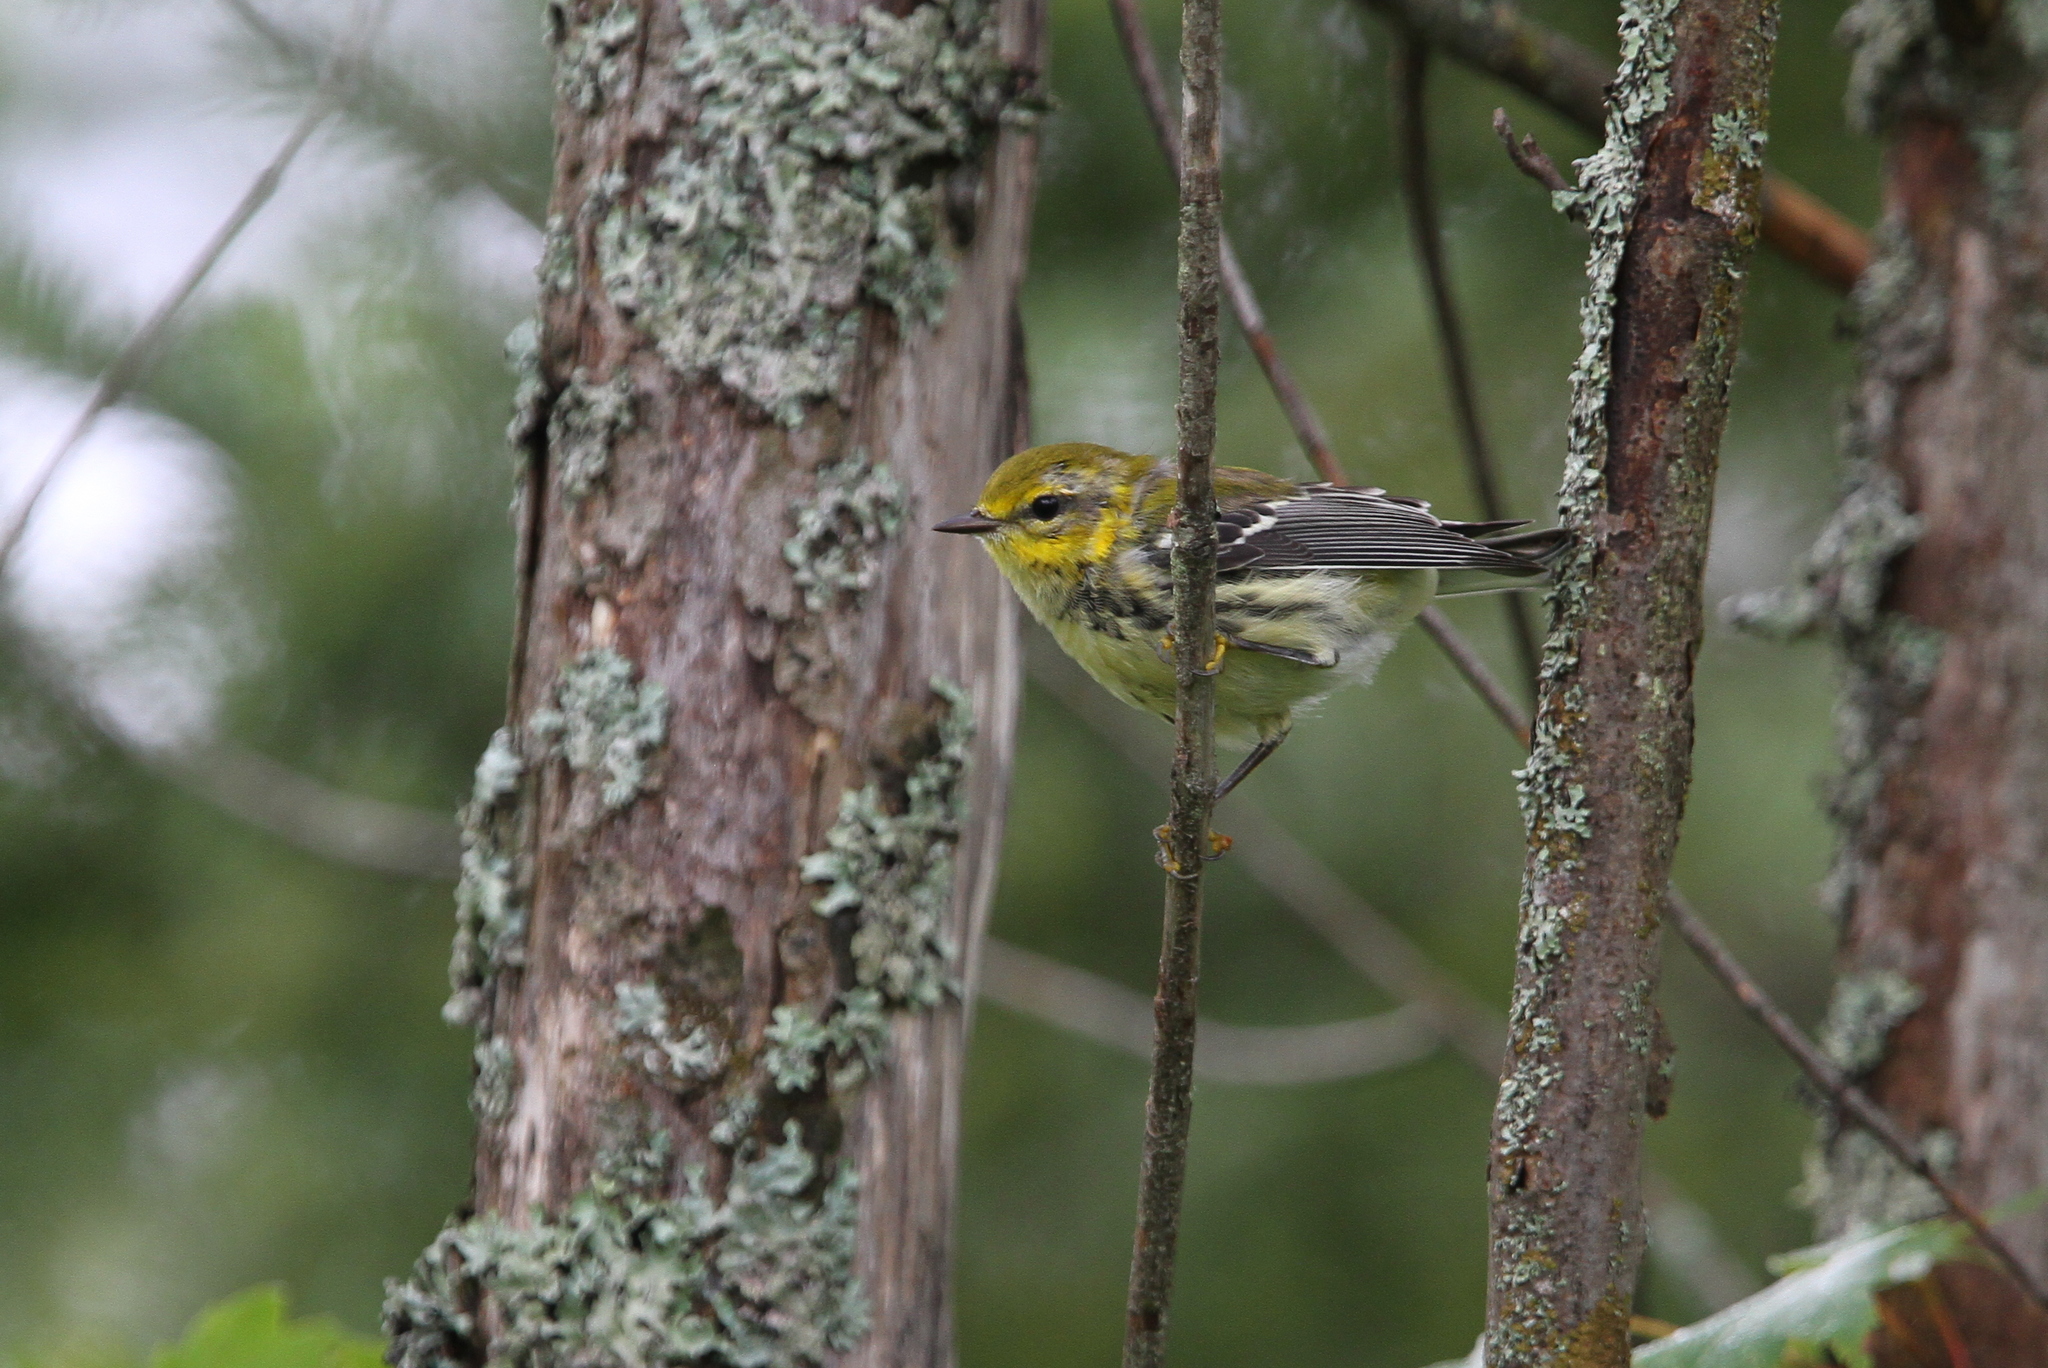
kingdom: Animalia
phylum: Chordata
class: Aves
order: Passeriformes
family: Parulidae
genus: Setophaga
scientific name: Setophaga virens
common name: Black-throated green warbler
